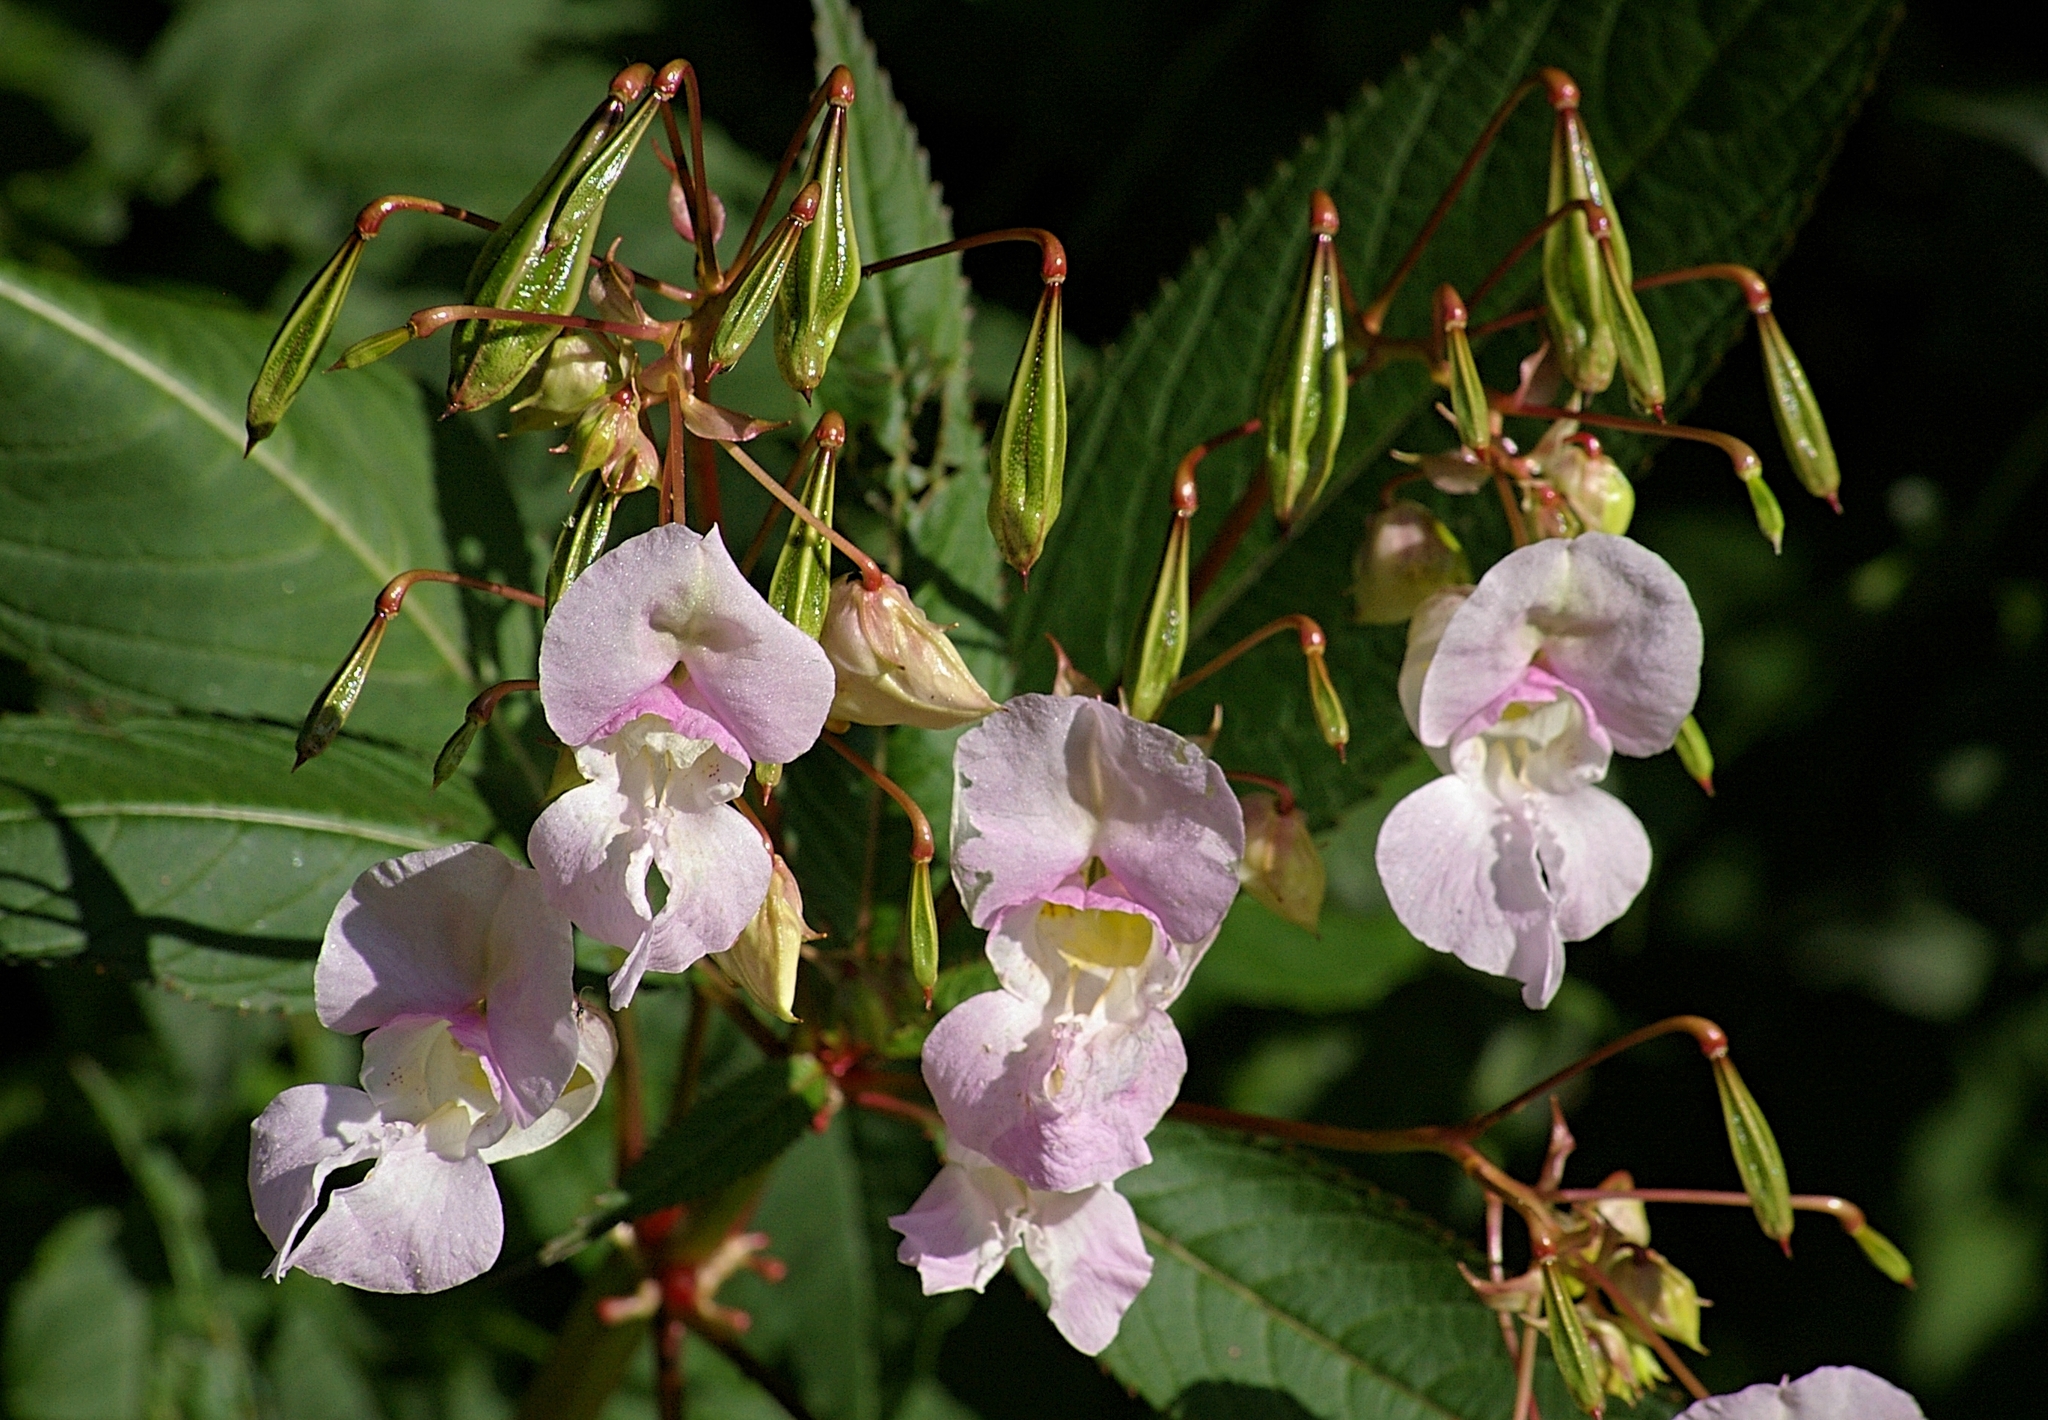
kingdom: Plantae
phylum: Tracheophyta
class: Magnoliopsida
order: Ericales
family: Balsaminaceae
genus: Impatiens
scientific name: Impatiens glandulifera
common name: Himalayan balsam
